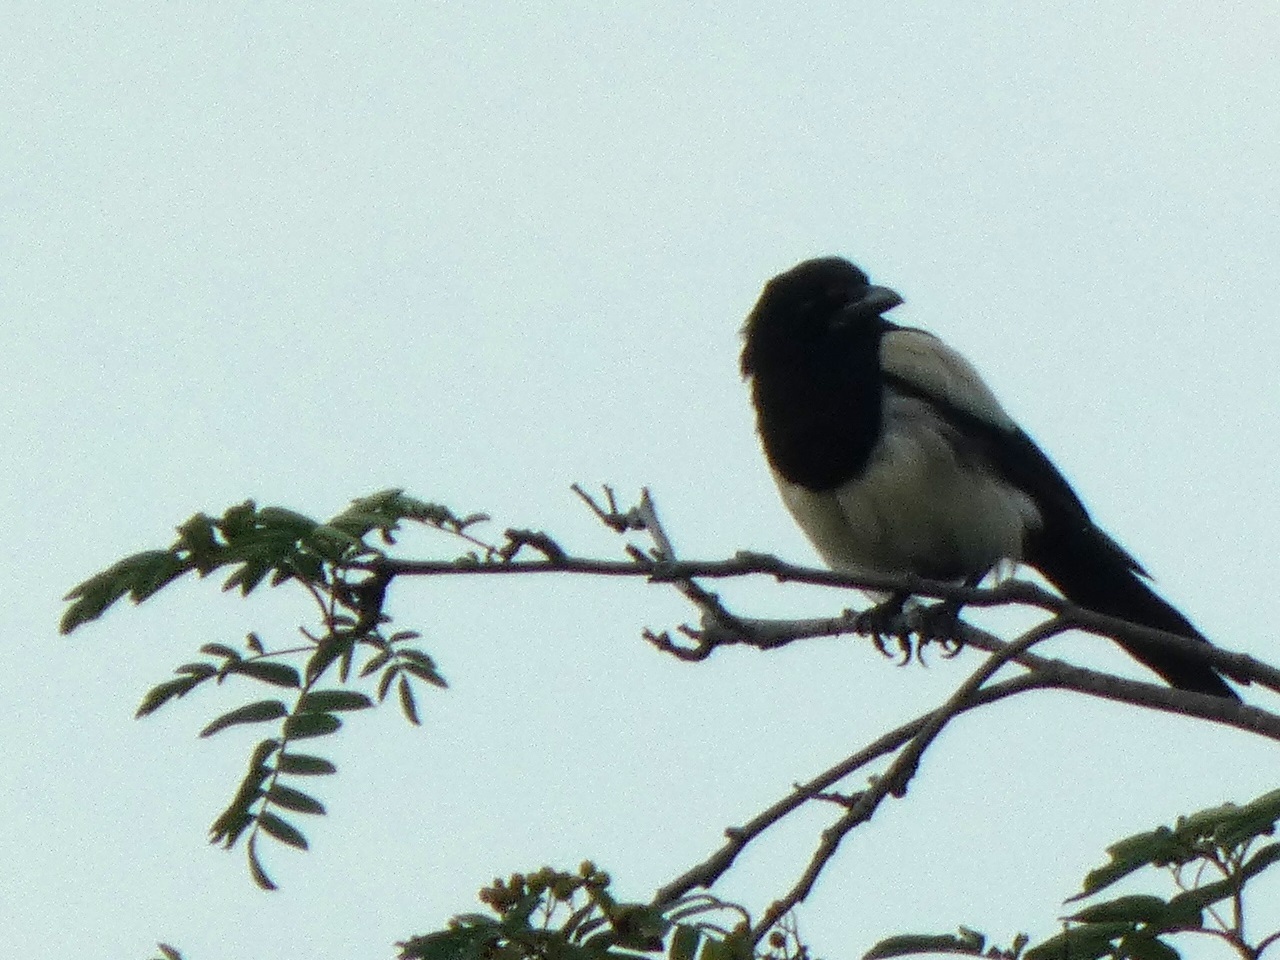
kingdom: Animalia
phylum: Chordata
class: Aves
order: Passeriformes
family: Corvidae
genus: Pica
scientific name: Pica pica
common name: Eurasian magpie
